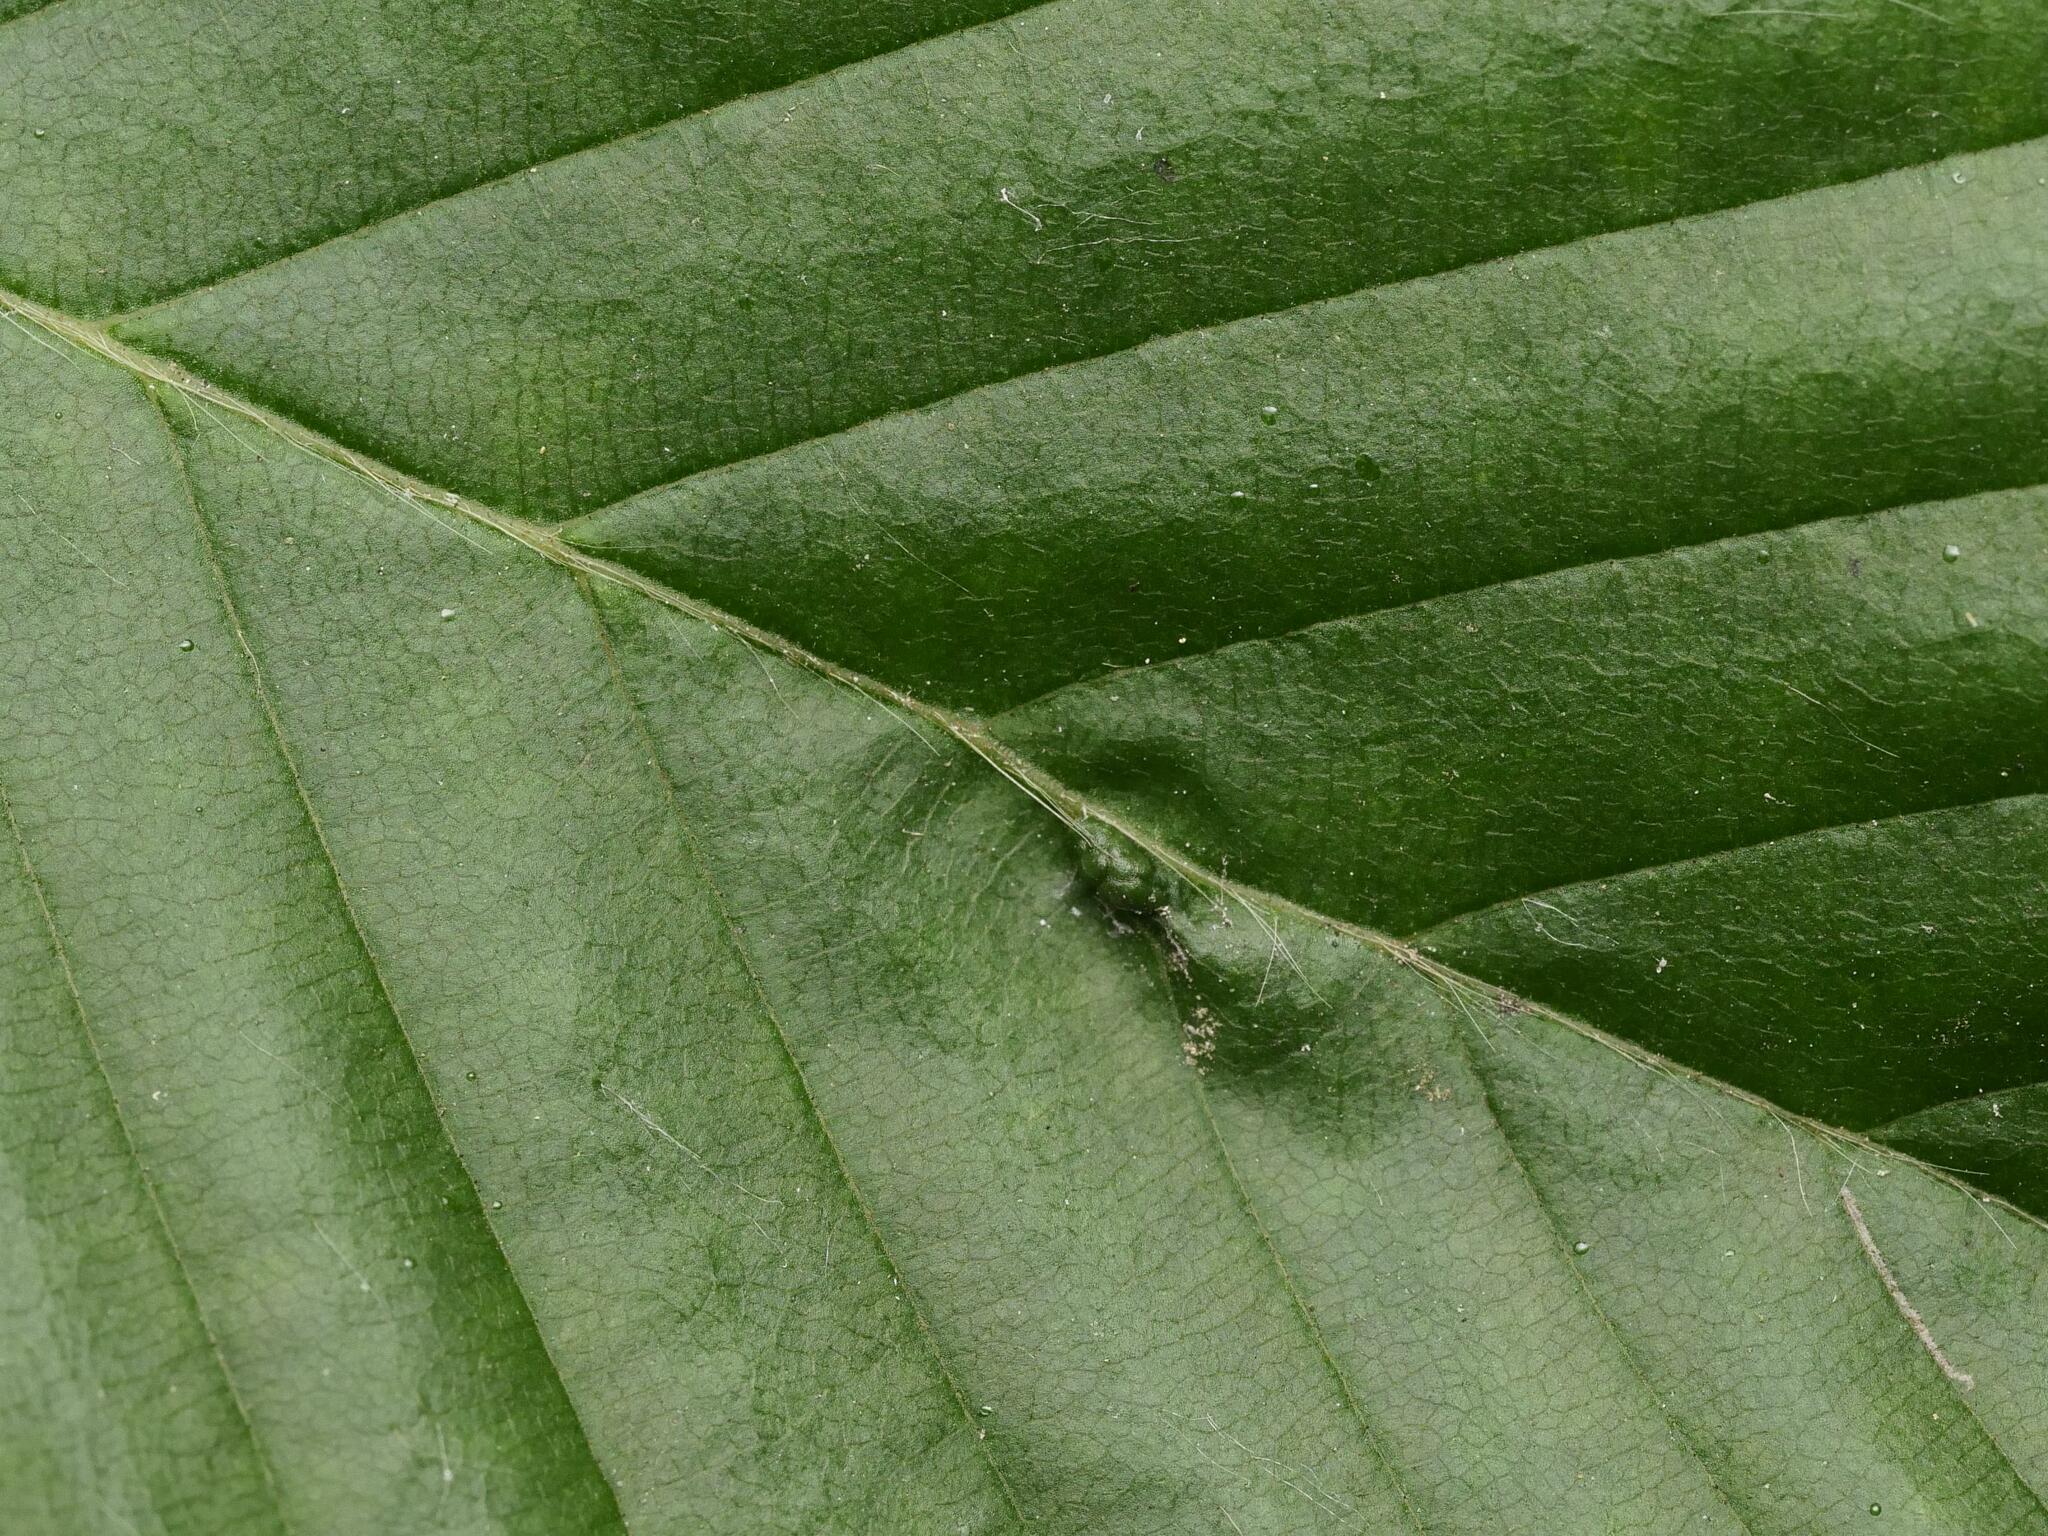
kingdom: Animalia
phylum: Arthropoda
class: Arachnida
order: Trombidiformes
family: Eriophyidae
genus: Aceria
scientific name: Aceria tenellus
